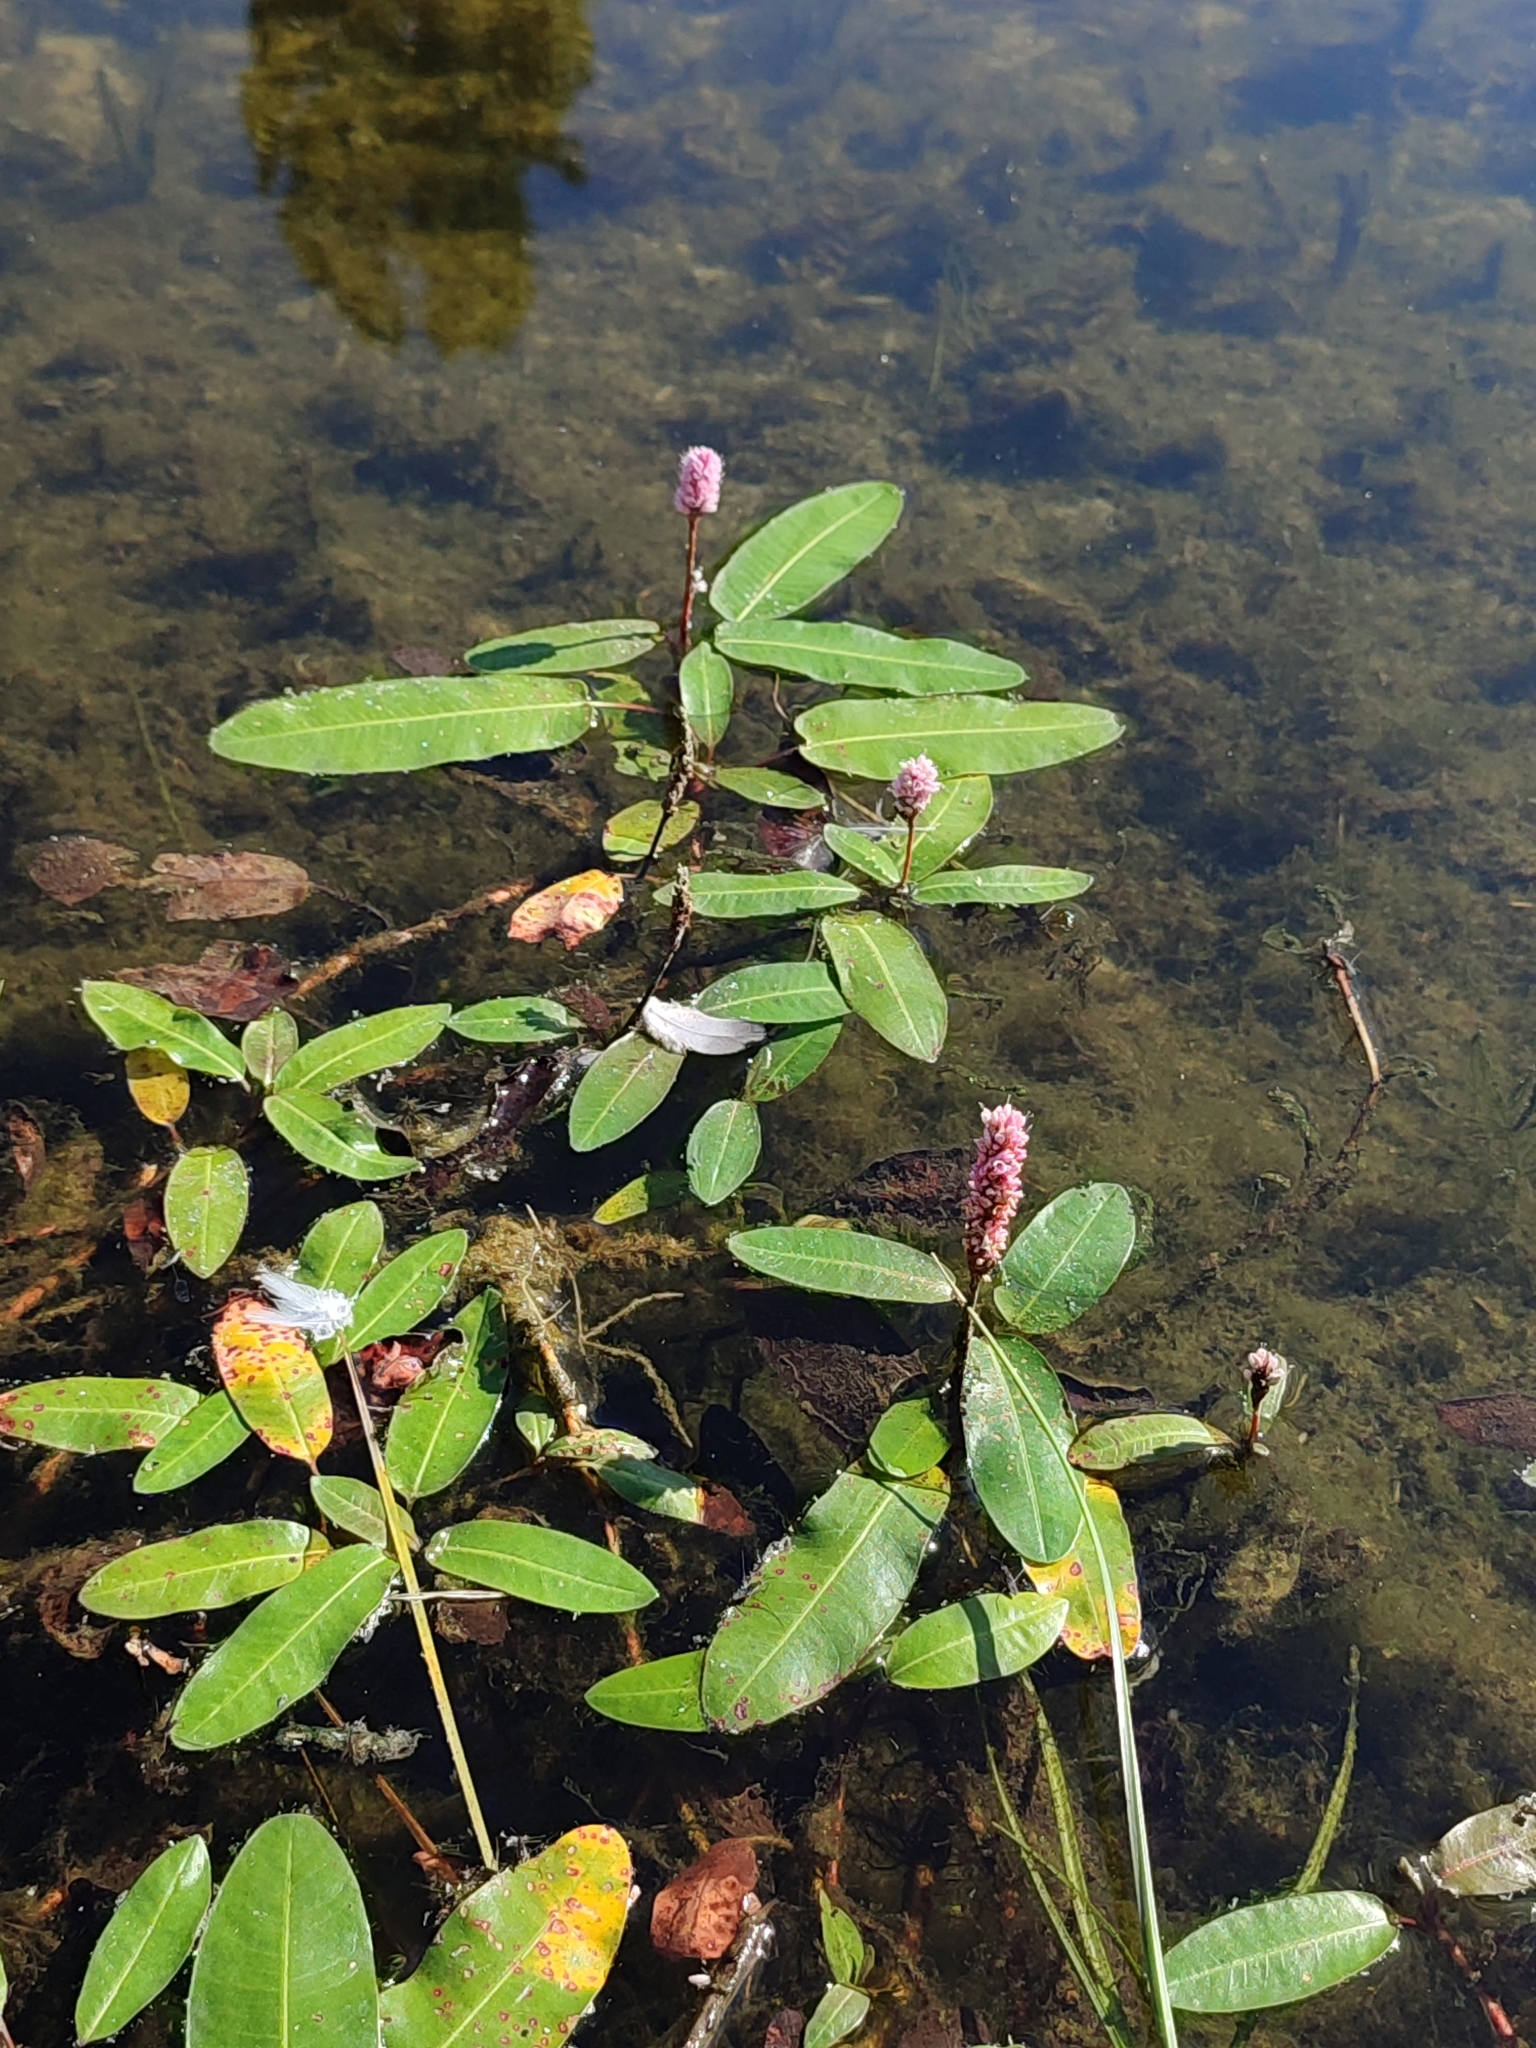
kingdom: Plantae
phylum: Tracheophyta
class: Magnoliopsida
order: Caryophyllales
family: Polygonaceae
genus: Persicaria
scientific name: Persicaria amphibia
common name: Amphibious bistort
